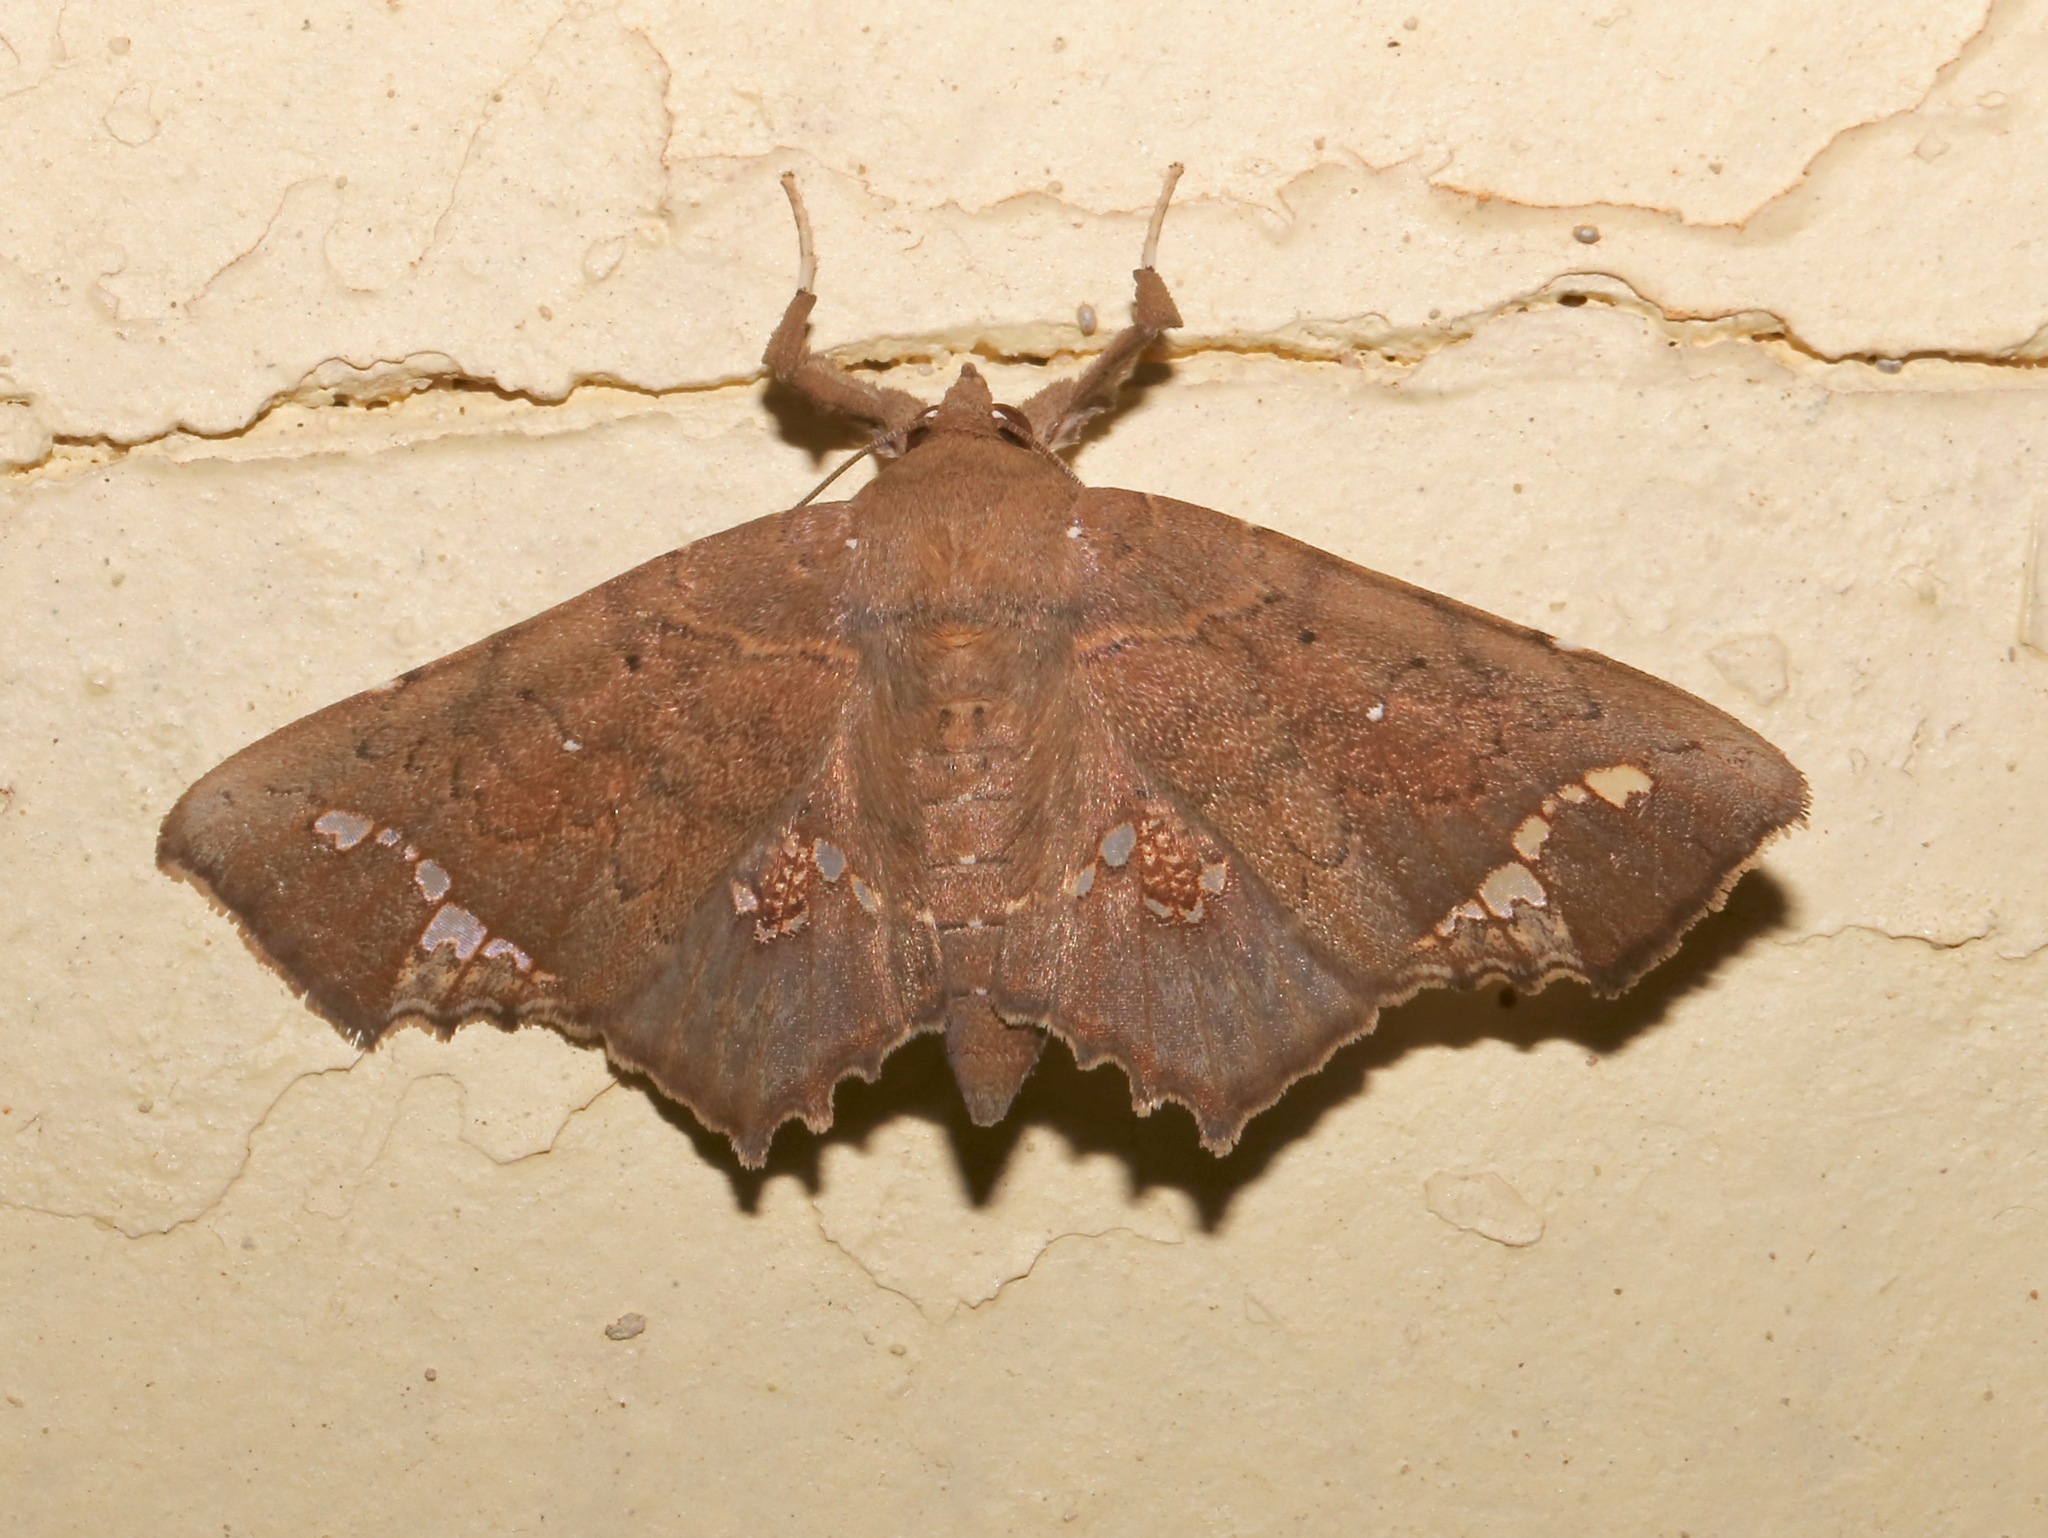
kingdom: Animalia
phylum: Arthropoda
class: Insecta
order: Lepidoptera
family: Erebidae
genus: Episparis
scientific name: Episparis gomphiona
